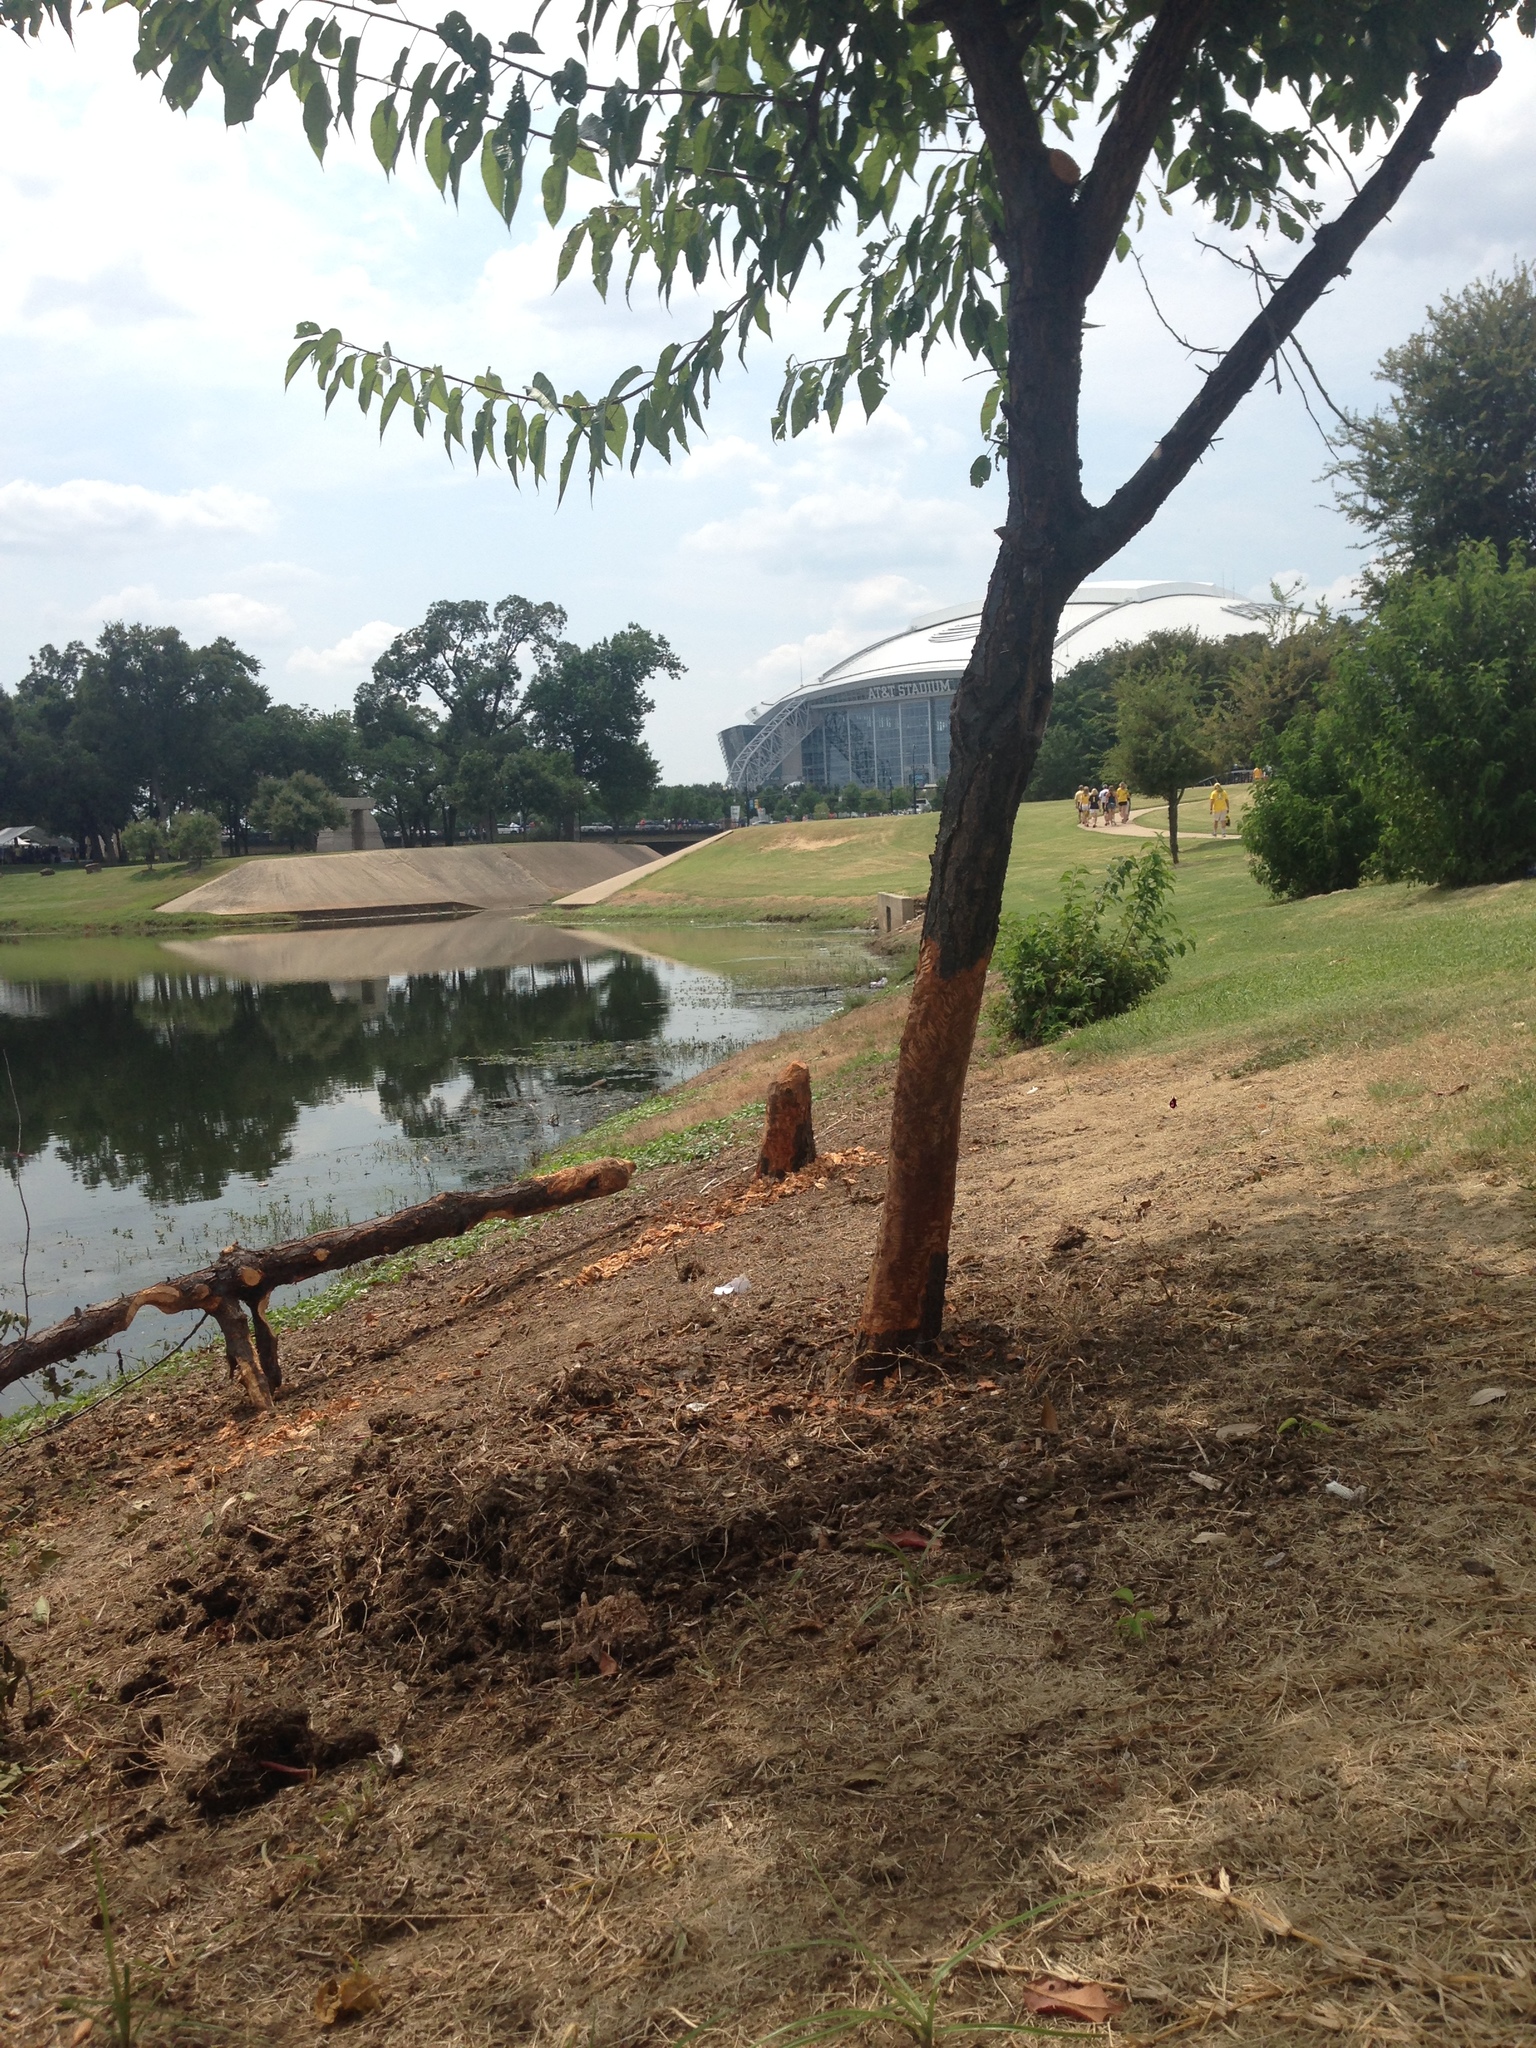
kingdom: Animalia
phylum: Chordata
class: Mammalia
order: Rodentia
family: Castoridae
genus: Castor
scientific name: Castor canadensis
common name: American beaver
